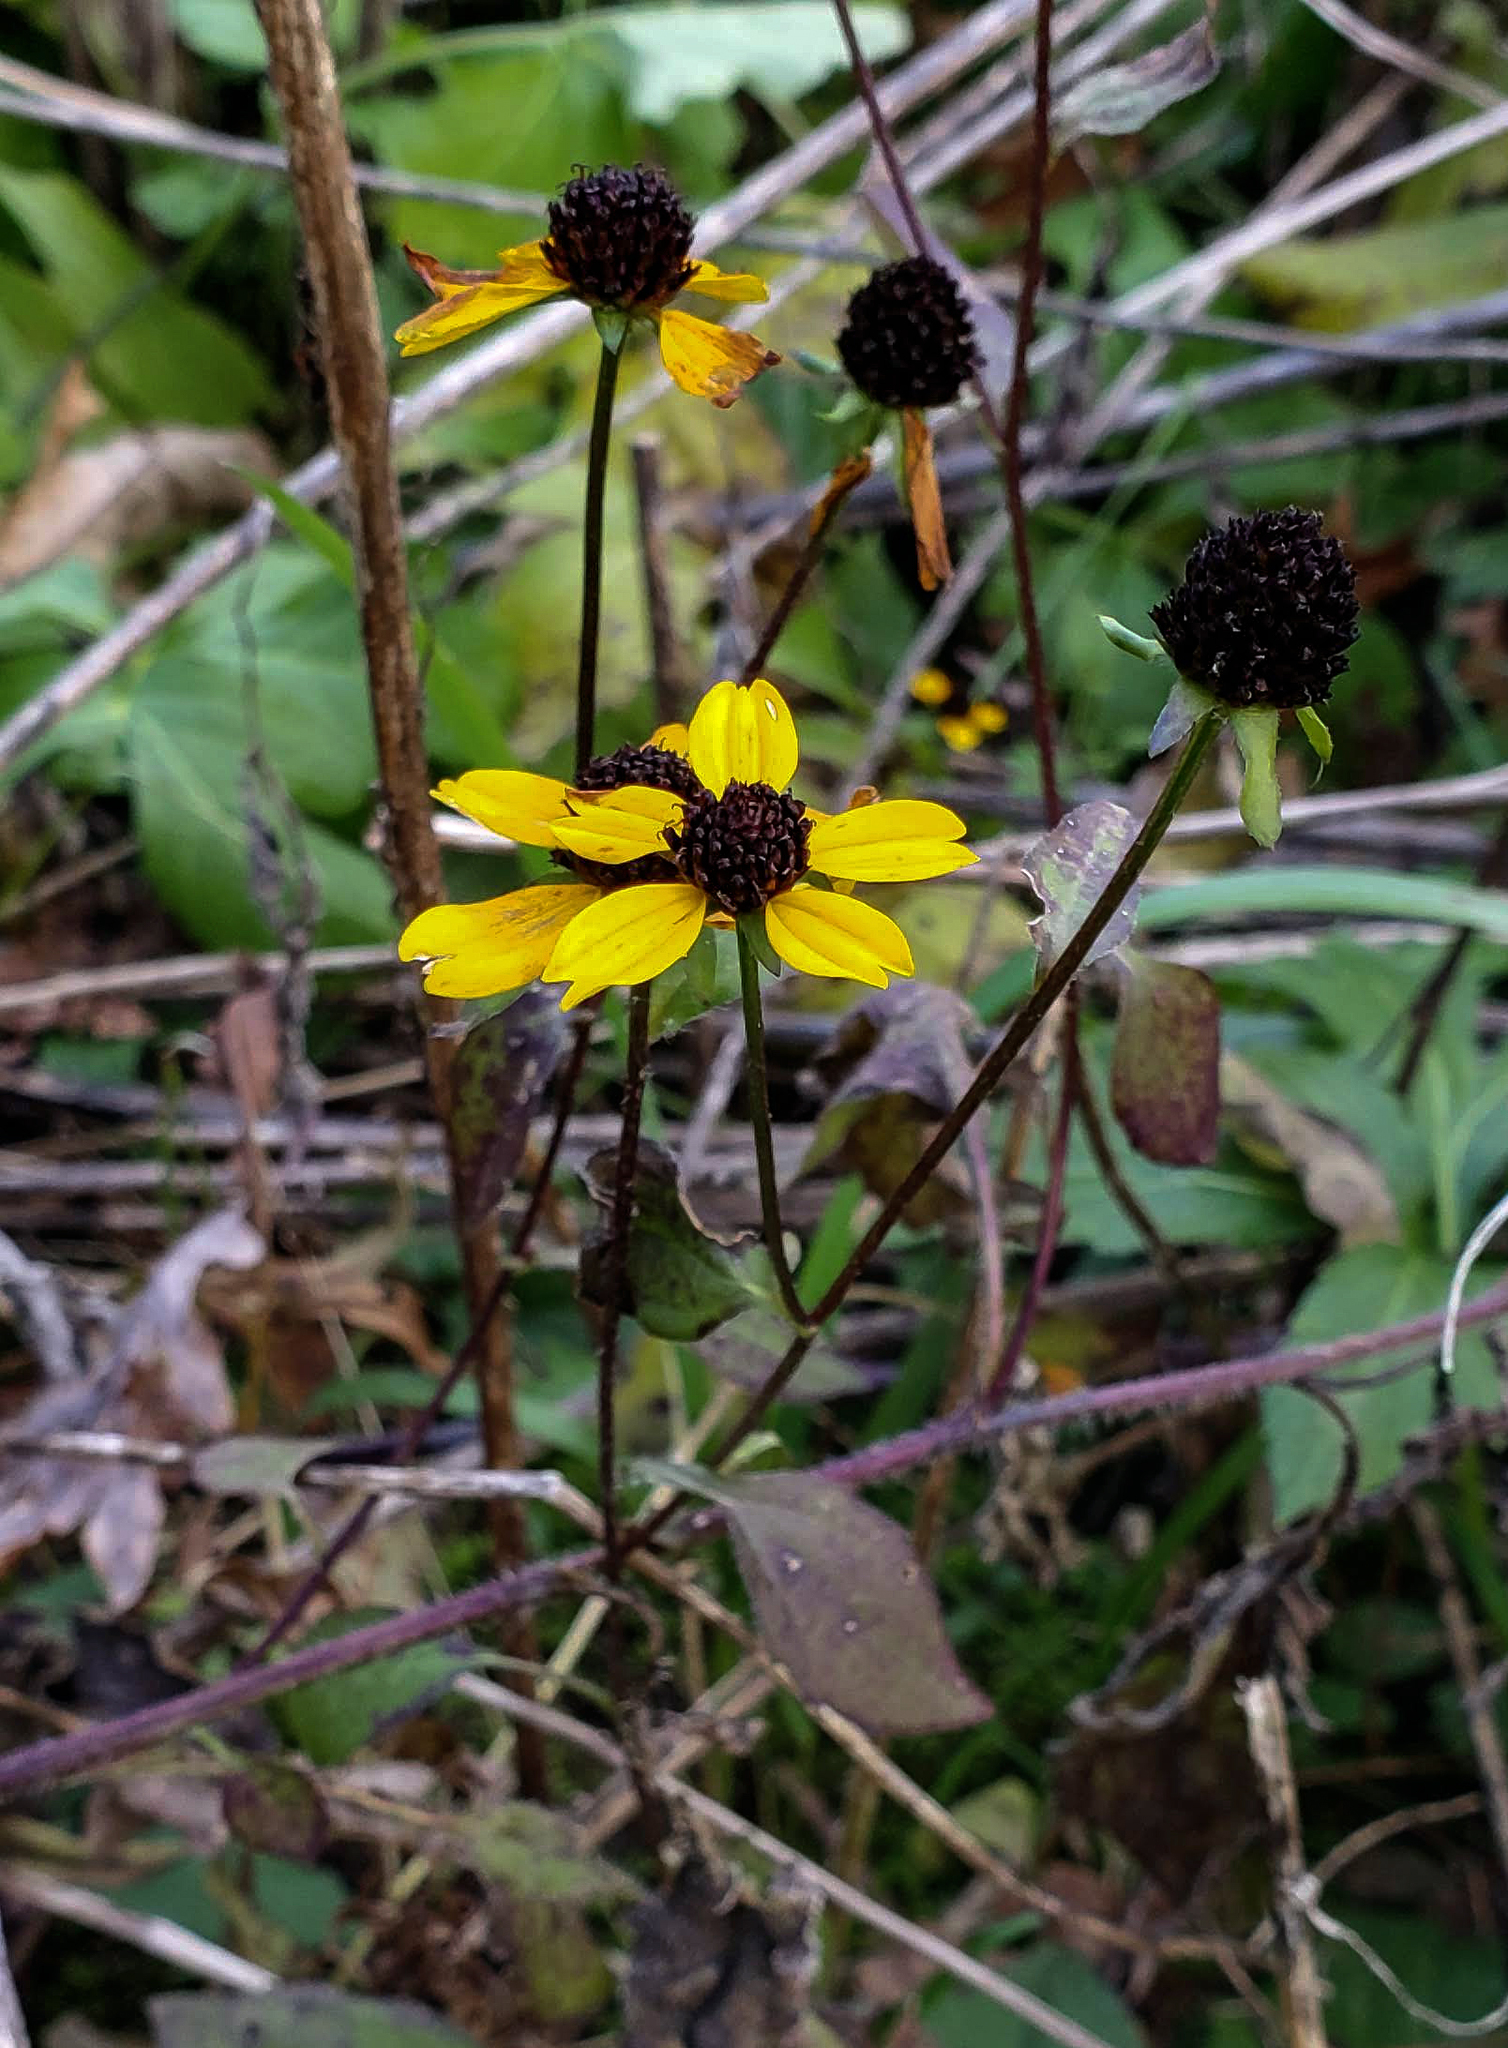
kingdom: Plantae
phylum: Tracheophyta
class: Magnoliopsida
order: Asterales
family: Asteraceae
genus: Rudbeckia
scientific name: Rudbeckia triloba
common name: Thin-leaved coneflower
